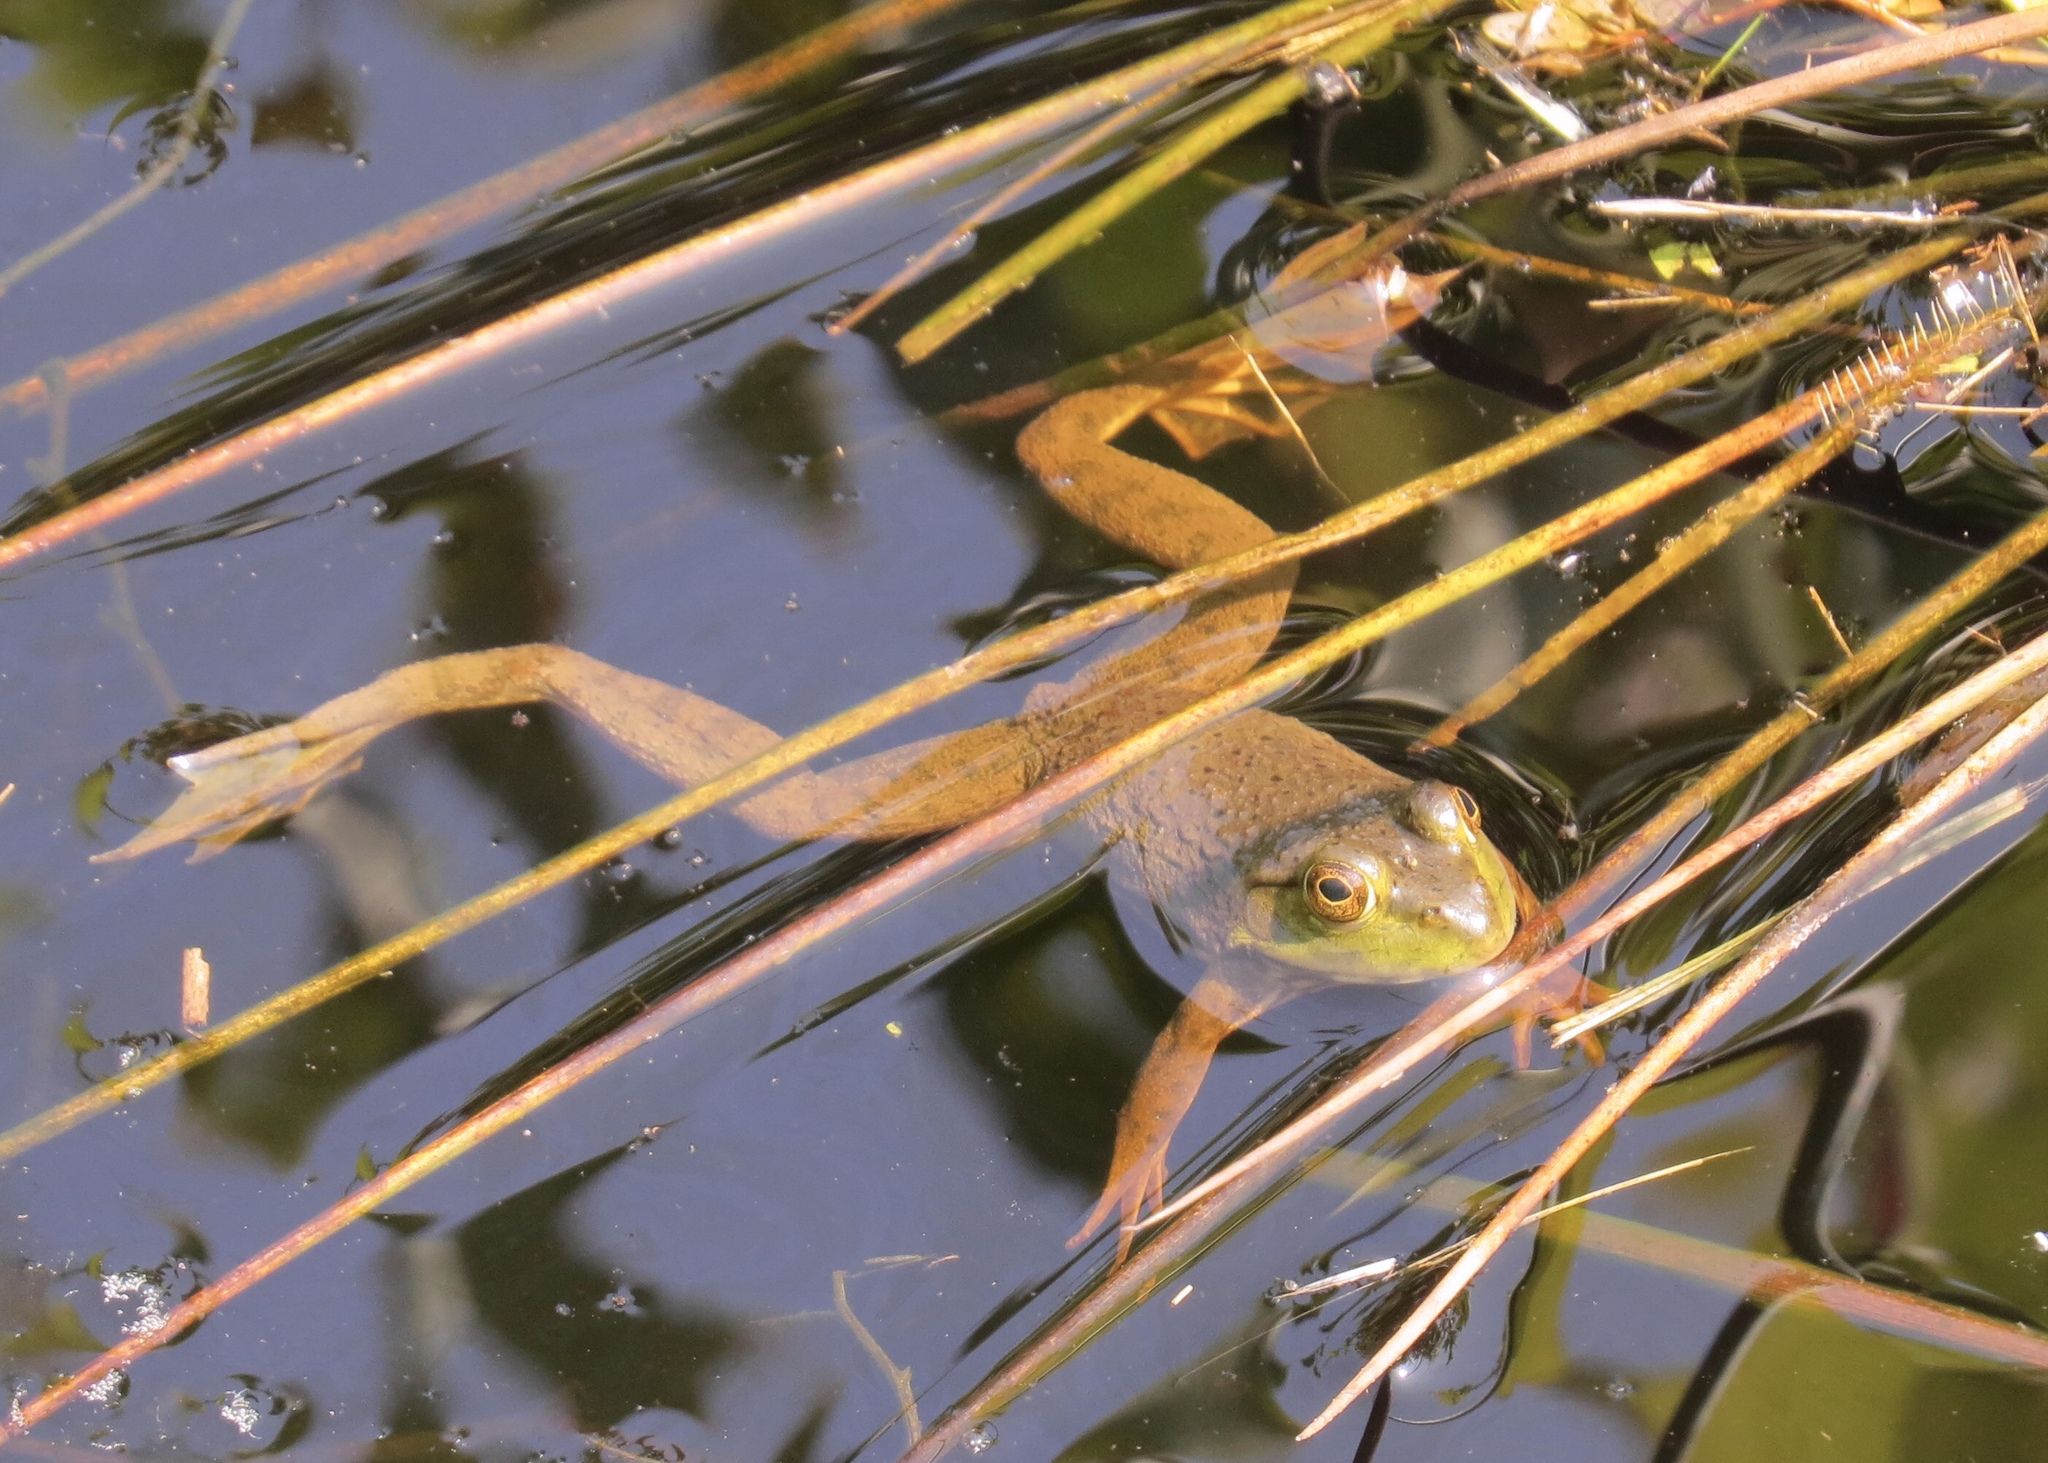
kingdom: Animalia
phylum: Chordata
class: Amphibia
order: Anura
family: Ranidae
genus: Lithobates
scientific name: Lithobates catesbeianus
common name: American bullfrog
